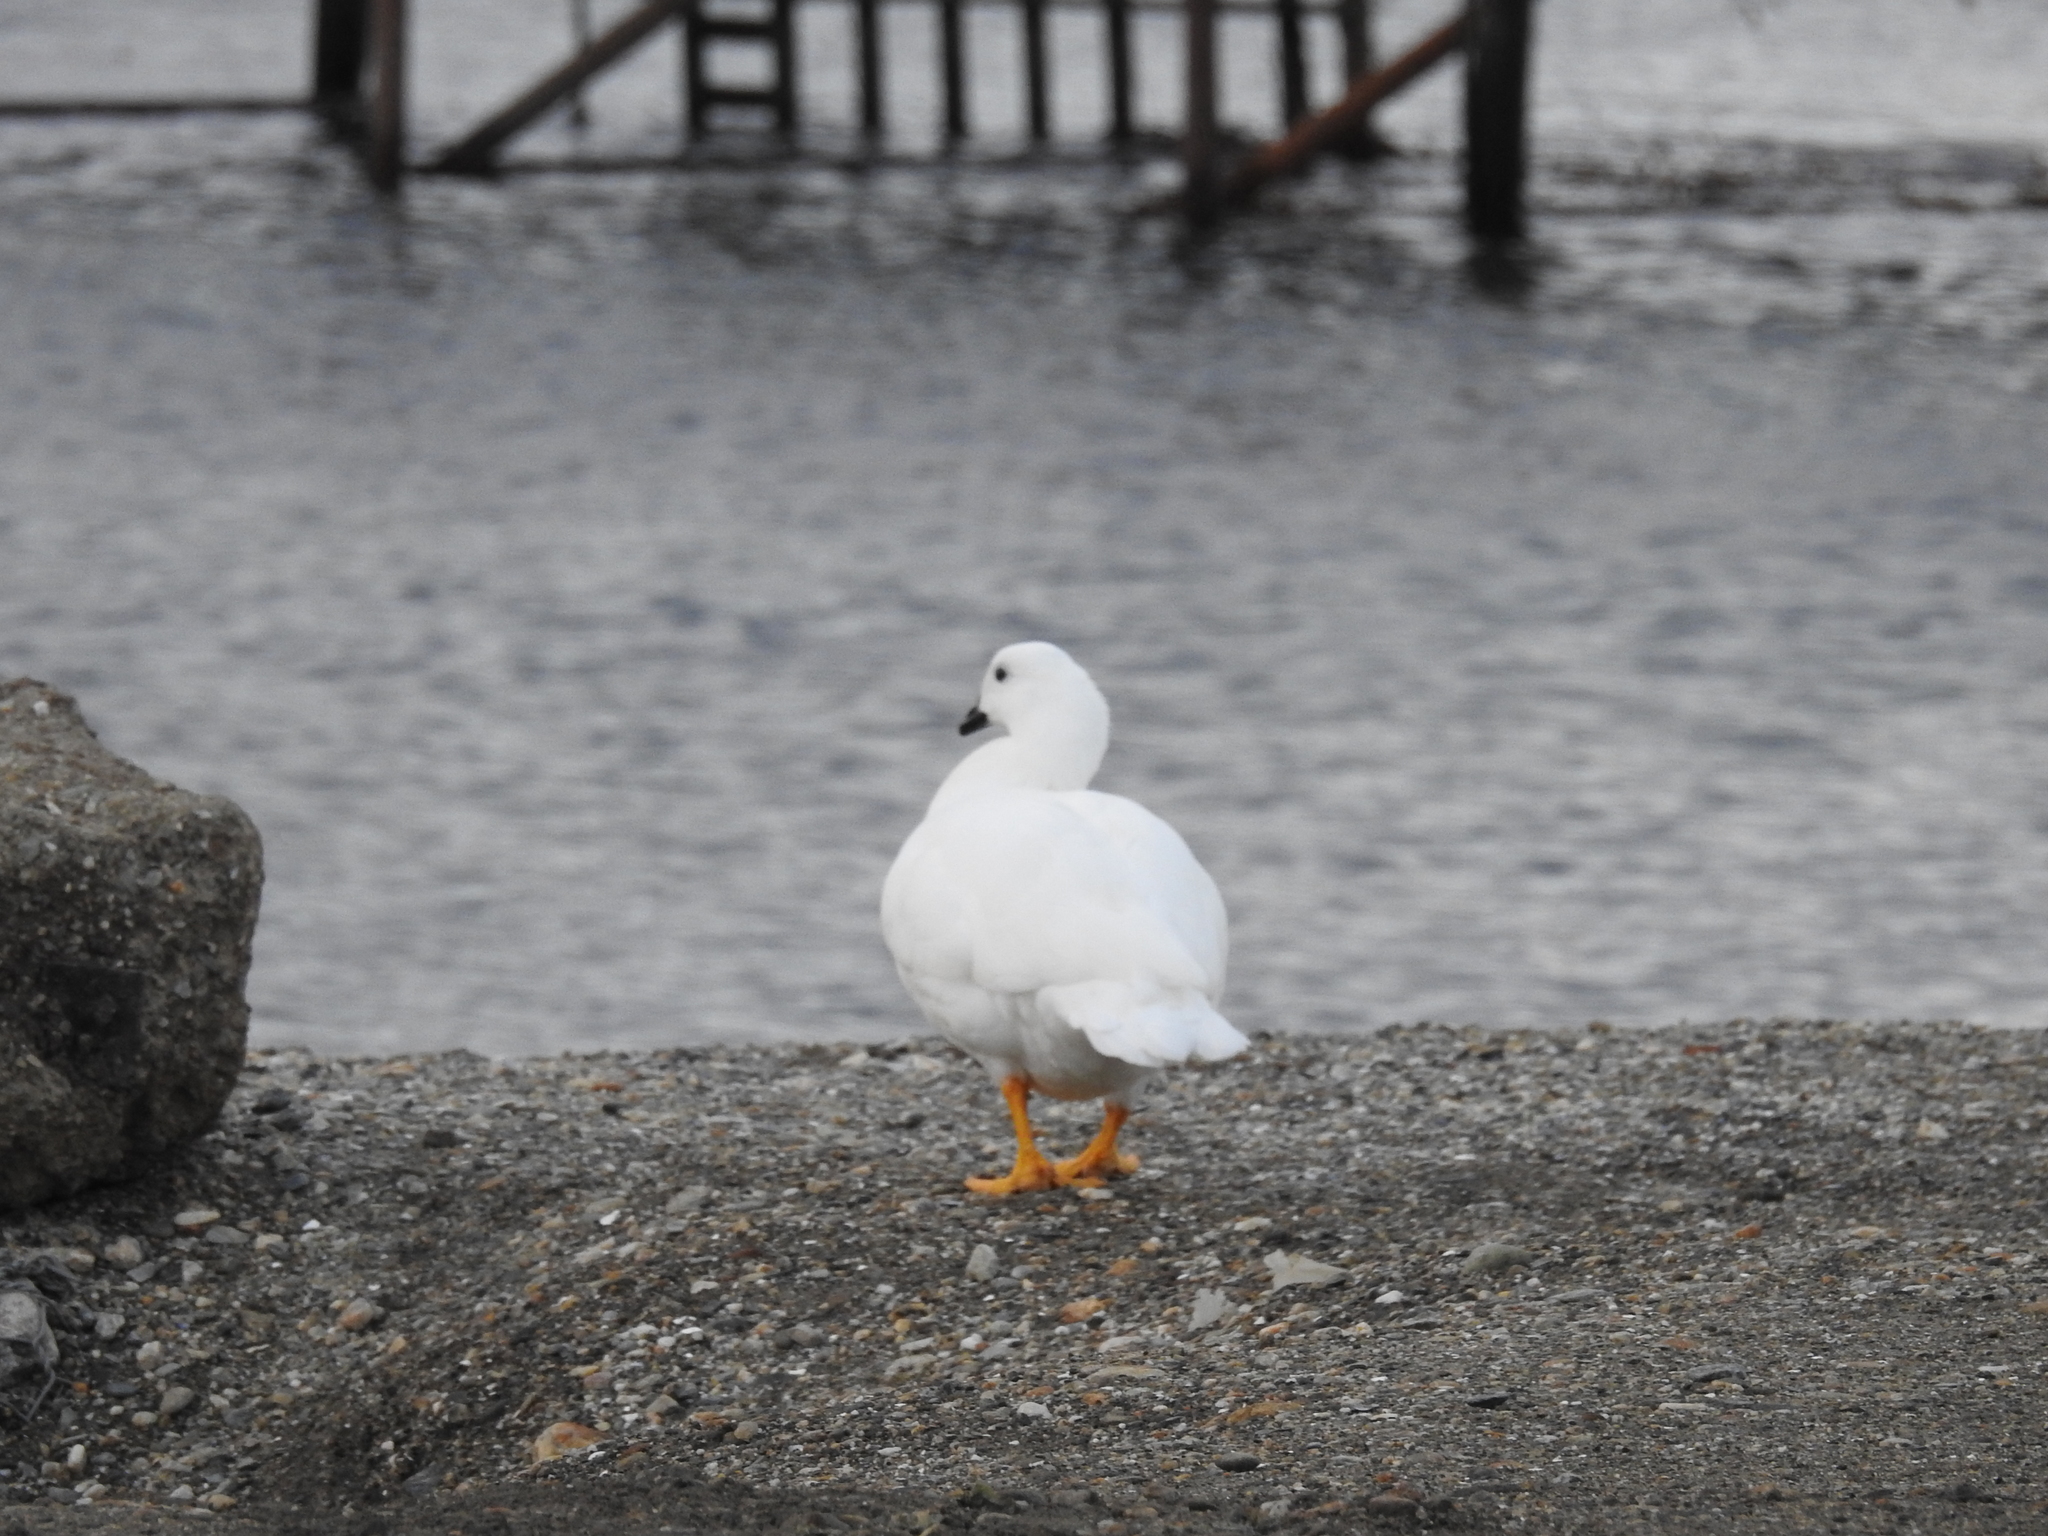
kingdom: Animalia
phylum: Chordata
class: Aves
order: Anseriformes
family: Anatidae
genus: Chloephaga
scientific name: Chloephaga hybrida
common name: Kelp goose
